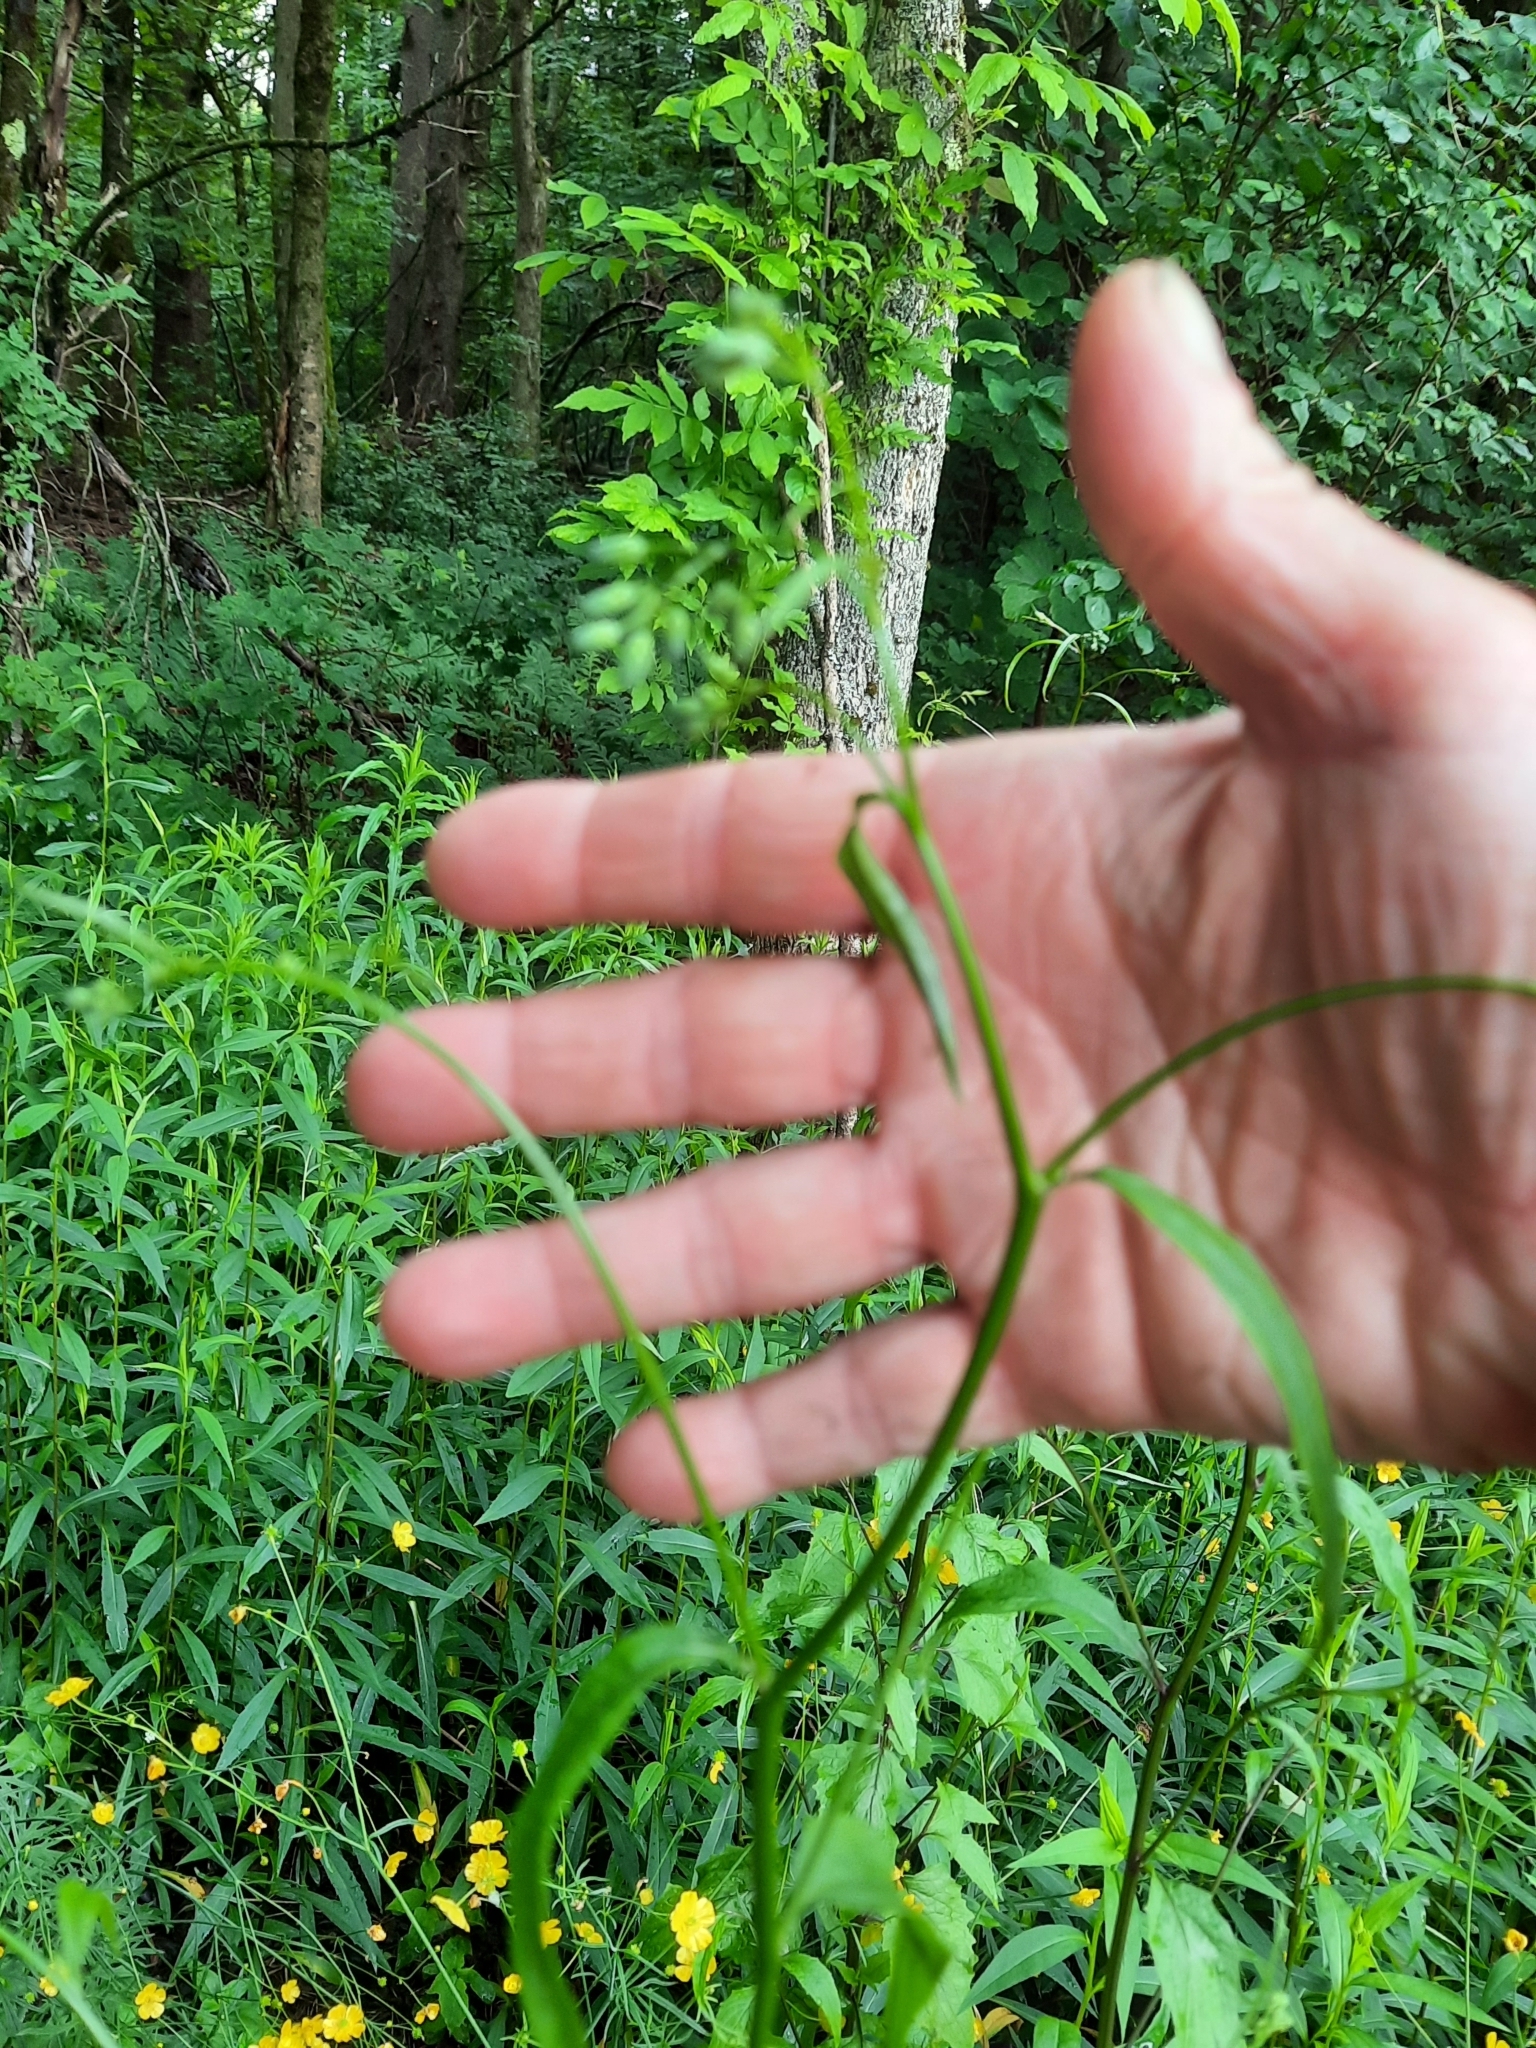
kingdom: Plantae
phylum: Tracheophyta
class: Magnoliopsida
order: Asterales
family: Asteraceae
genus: Lapsana
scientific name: Lapsana communis
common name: Nipplewort
